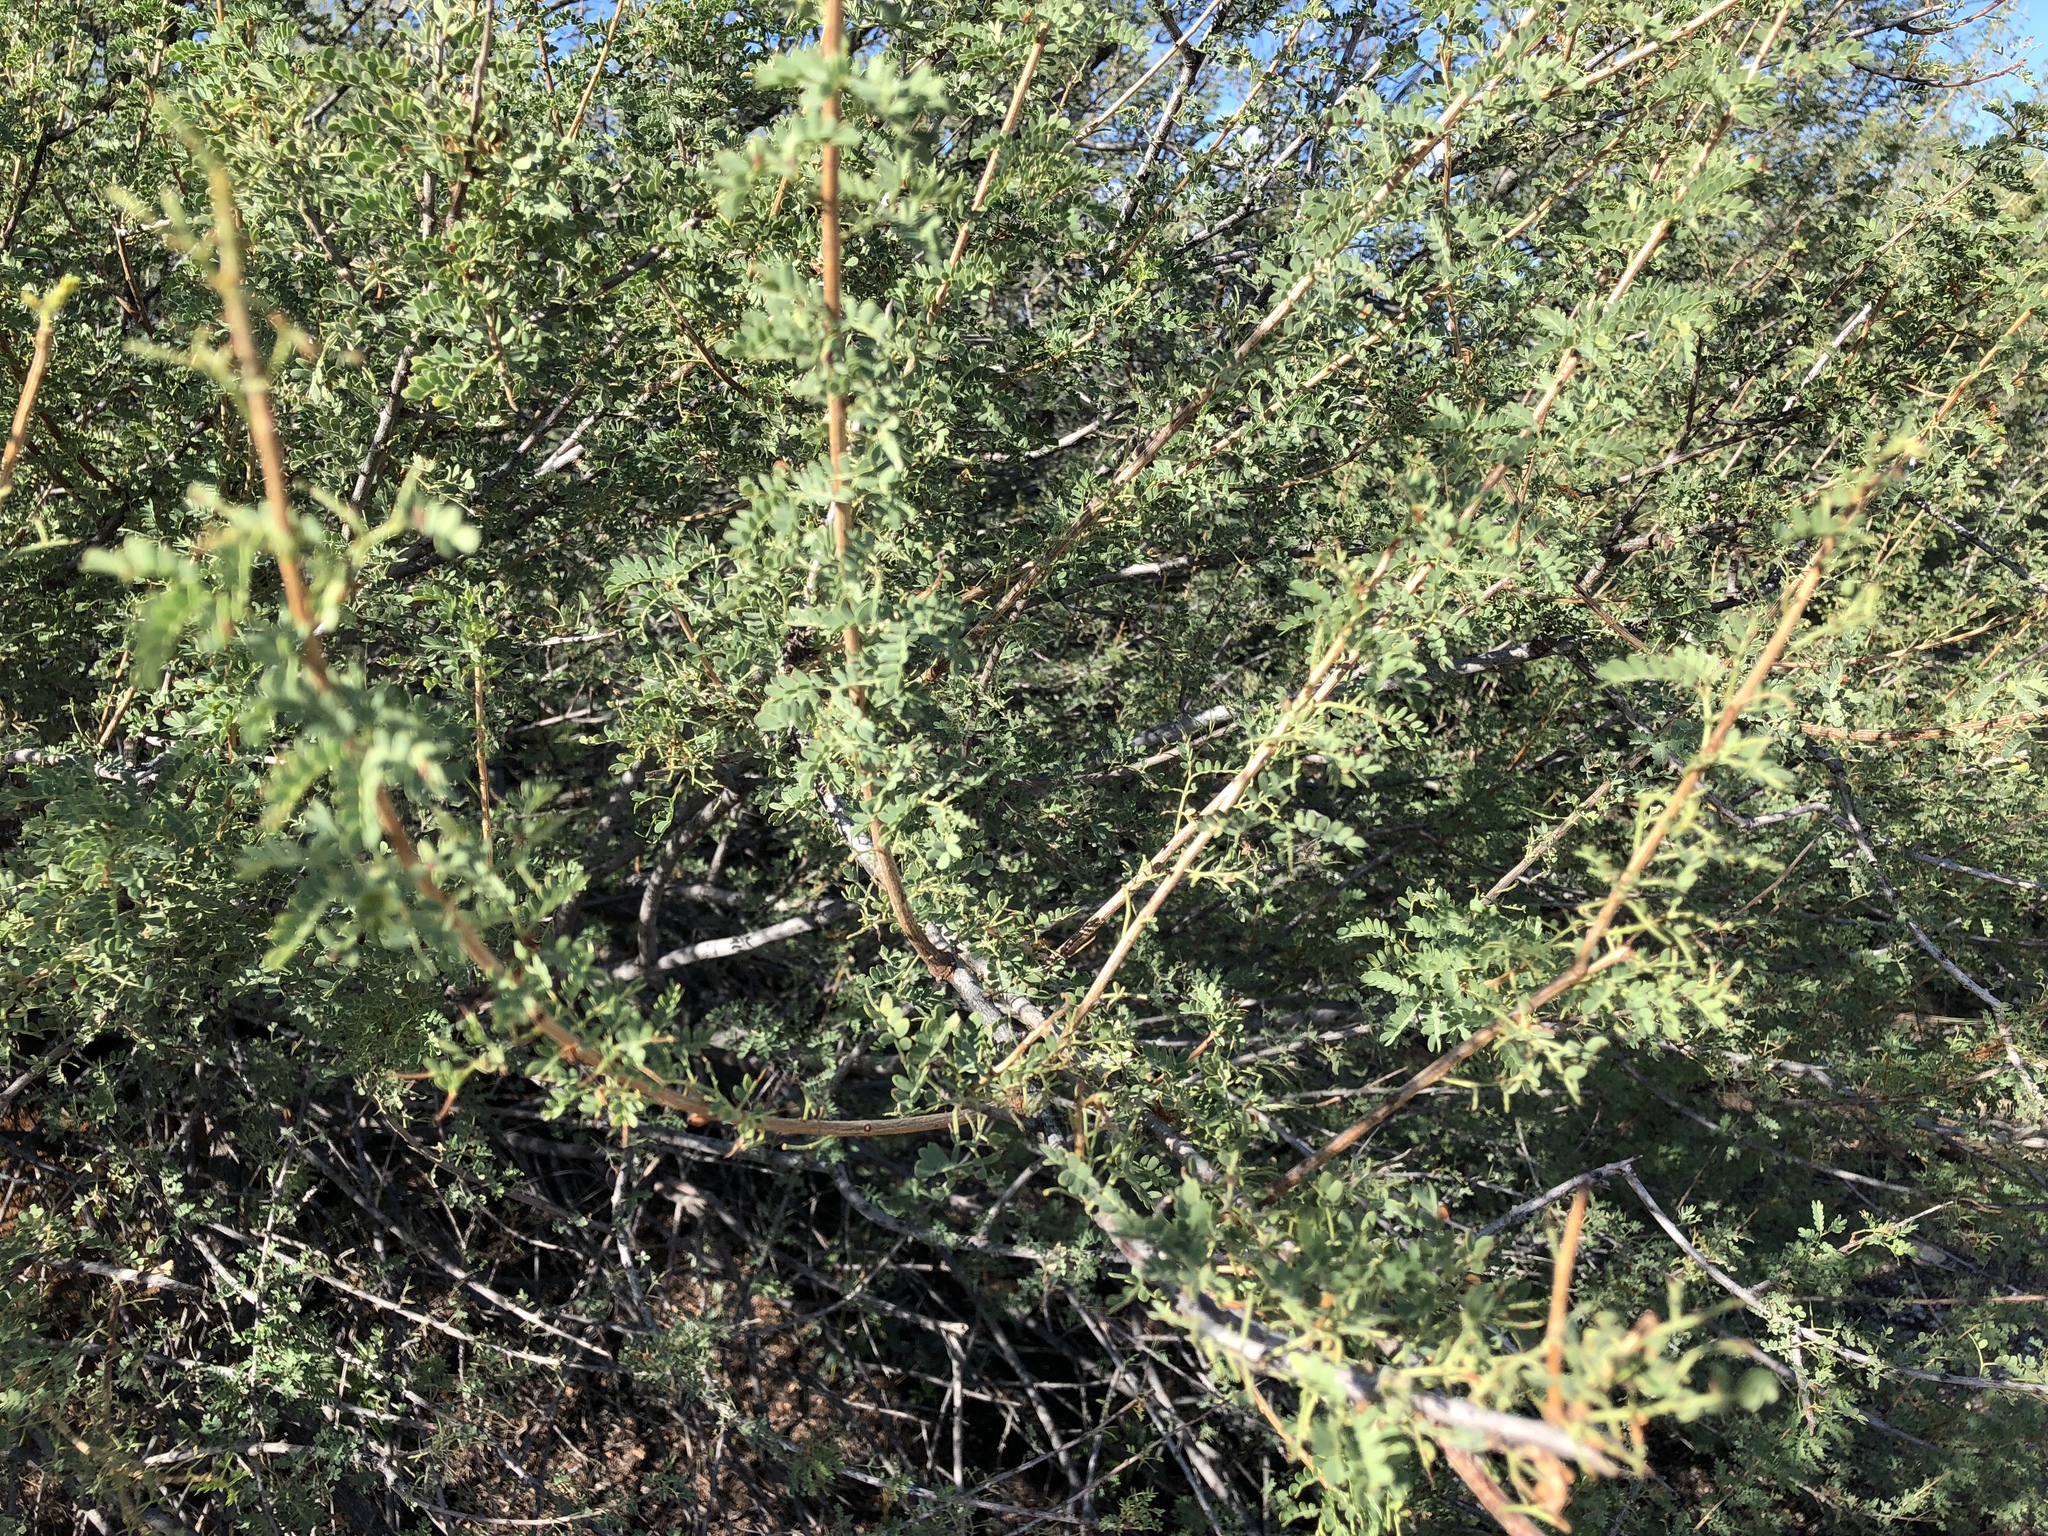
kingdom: Plantae
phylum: Tracheophyta
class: Magnoliopsida
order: Fabales
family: Fabaceae
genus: Senegalia
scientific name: Senegalia greggii
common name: Texas-mimosa
